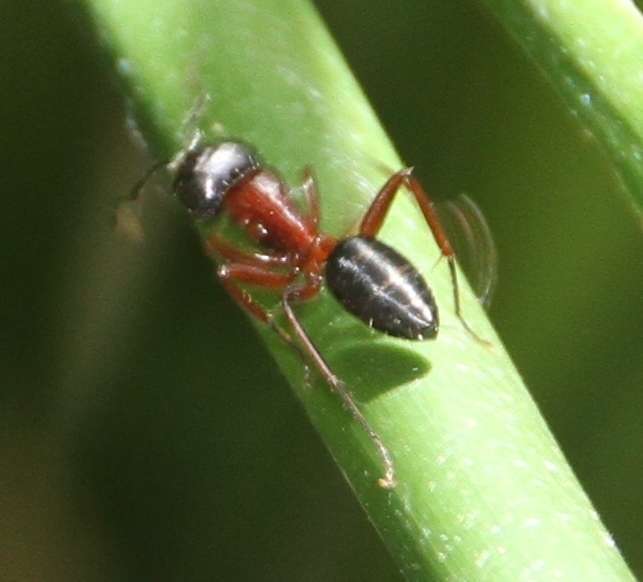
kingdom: Animalia
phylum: Arthropoda
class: Insecta
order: Hymenoptera
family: Formicidae
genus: Camponotus
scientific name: Camponotus innexus
